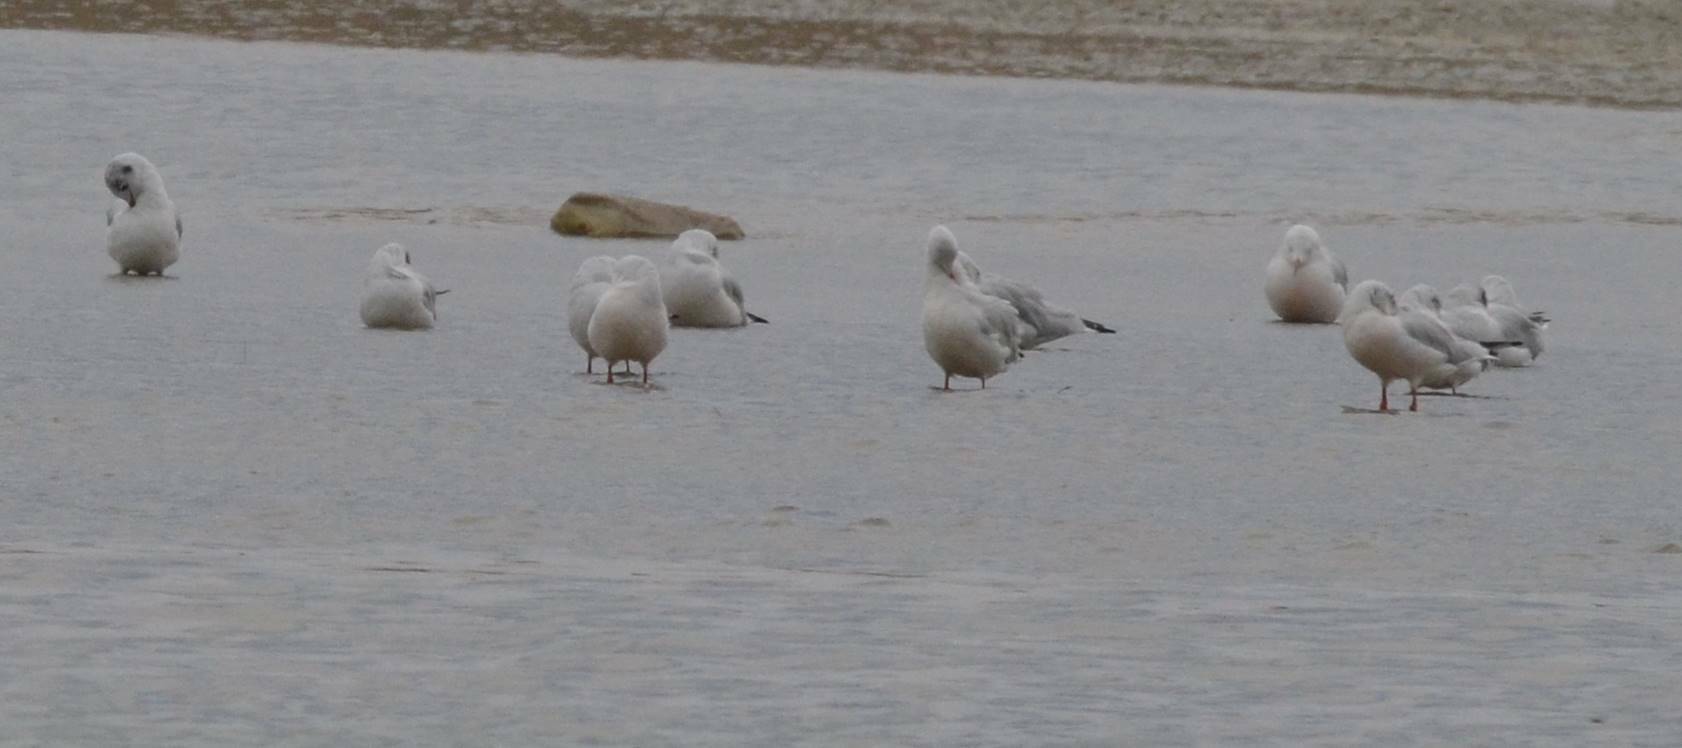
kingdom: Animalia
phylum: Chordata
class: Aves
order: Charadriiformes
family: Laridae
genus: Chroicocephalus
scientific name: Chroicocephalus genei
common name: Slender-billed gull
